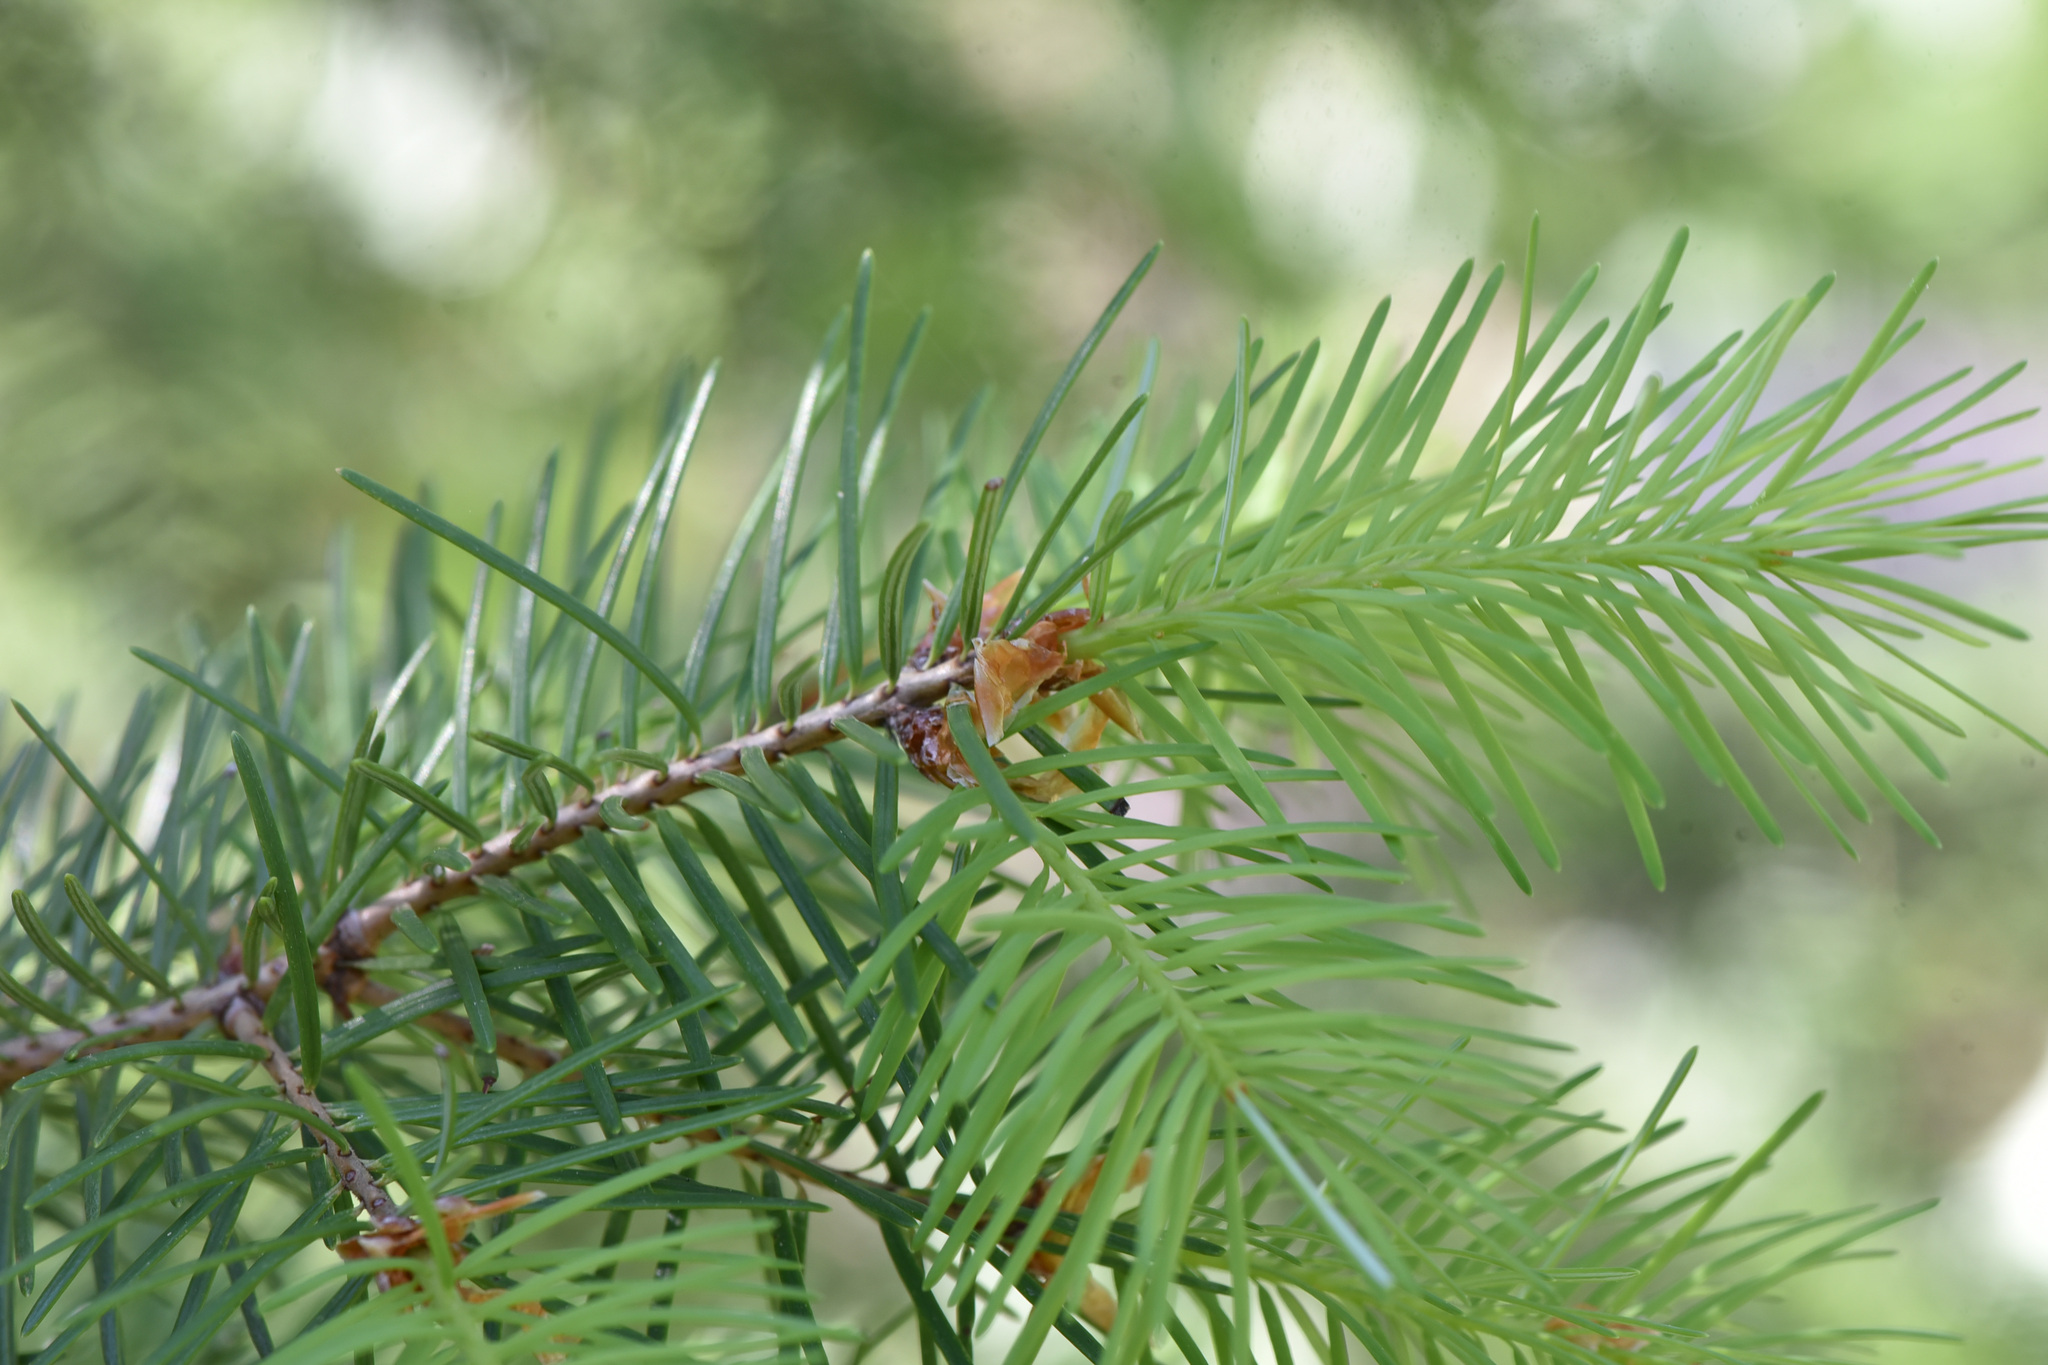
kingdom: Plantae
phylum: Tracheophyta
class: Pinopsida
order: Pinales
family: Pinaceae
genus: Pseudotsuga
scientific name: Pseudotsuga menziesii
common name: Douglas fir
